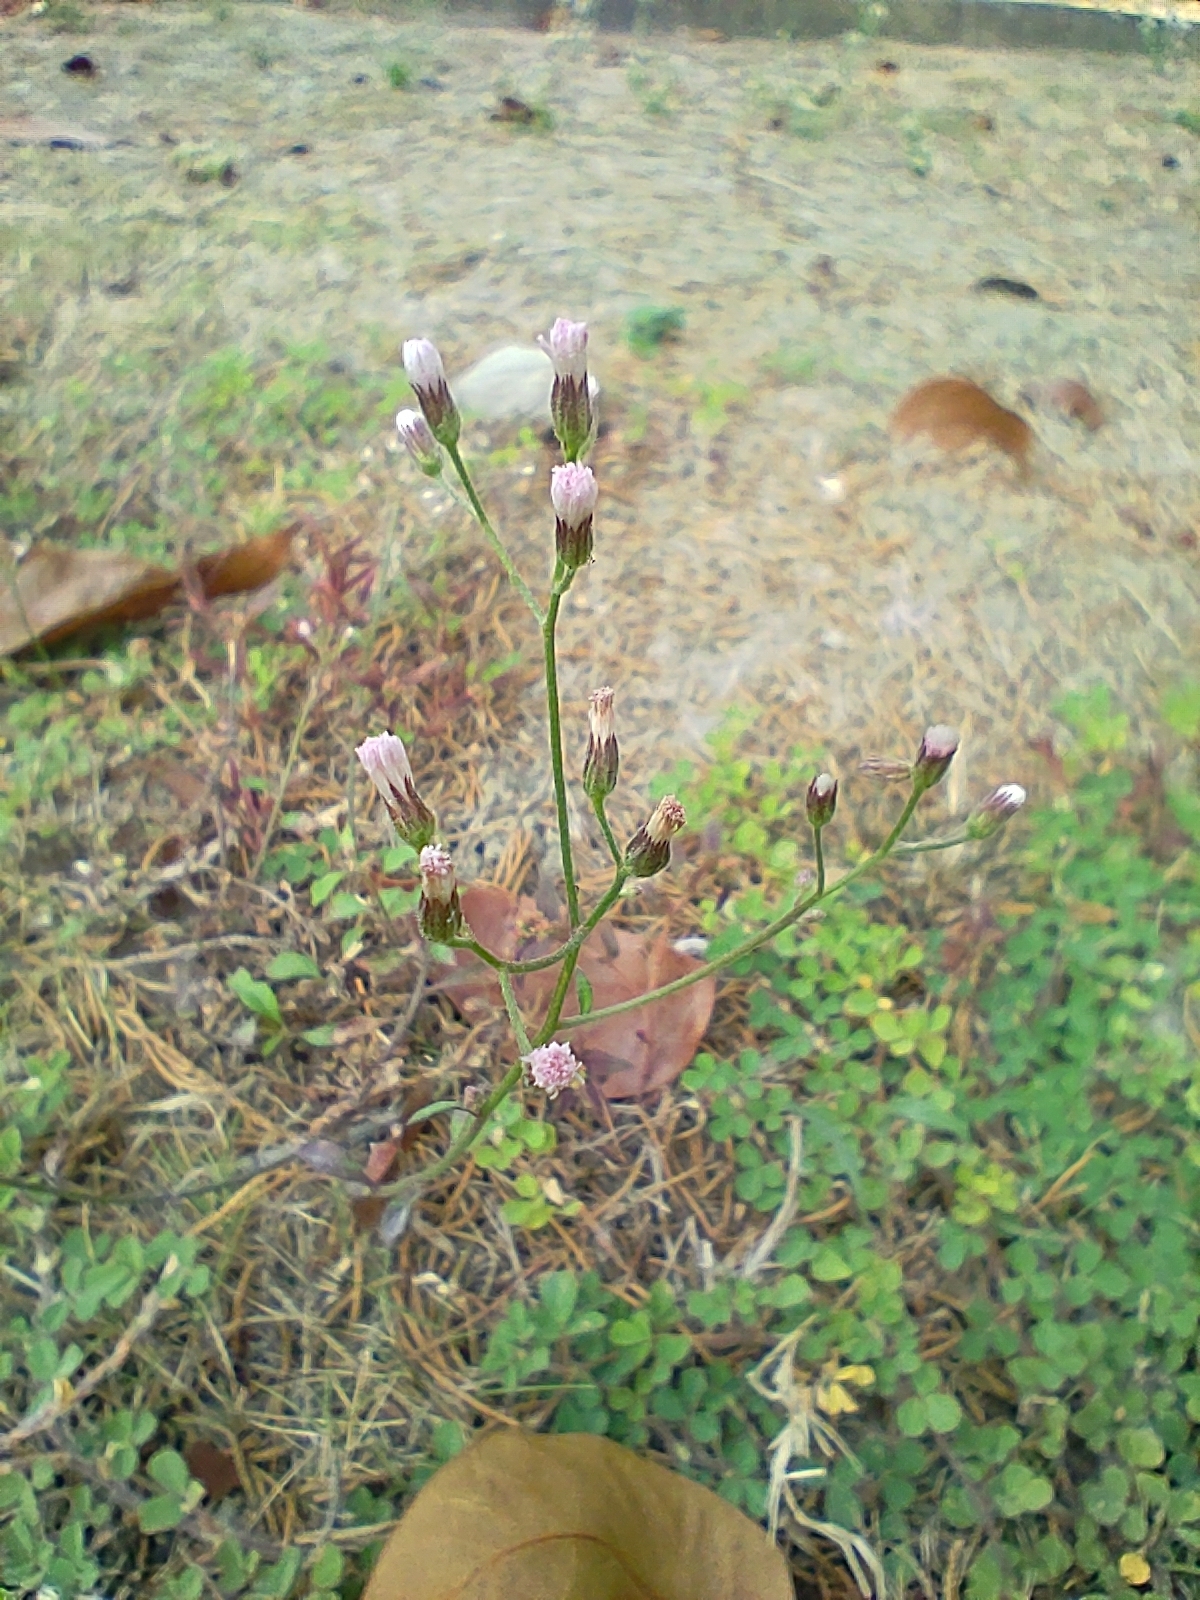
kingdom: Plantae
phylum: Tracheophyta
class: Magnoliopsida
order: Asterales
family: Asteraceae
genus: Cyanthillium
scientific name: Cyanthillium cinereum
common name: Little ironweed
